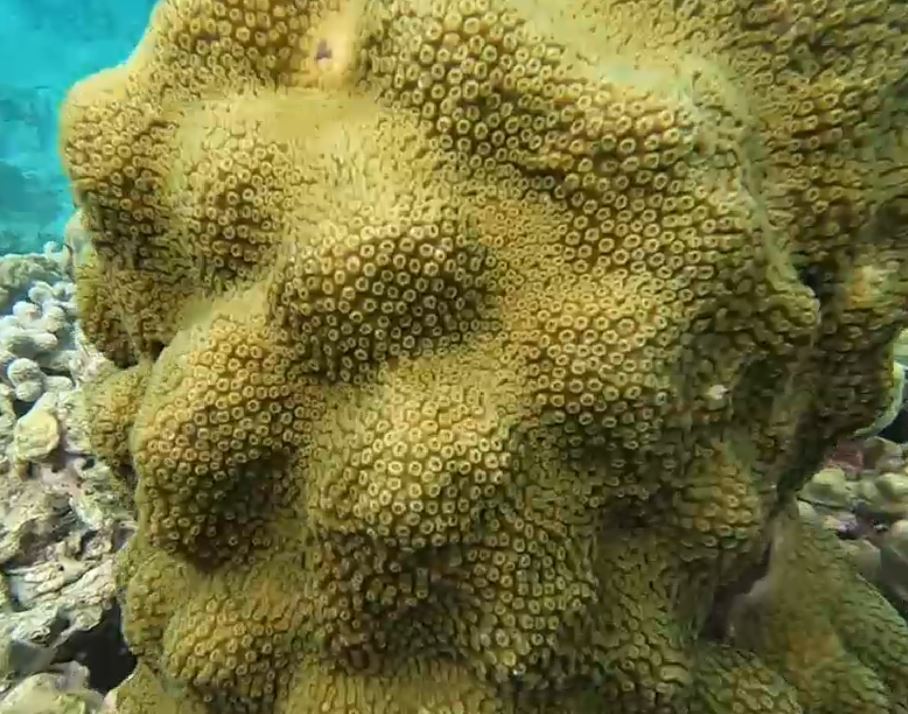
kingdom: Animalia
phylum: Cnidaria
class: Anthozoa
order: Scleractinia
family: Merulinidae
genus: Orbicella
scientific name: Orbicella faveolata
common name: Mountainous star coral
